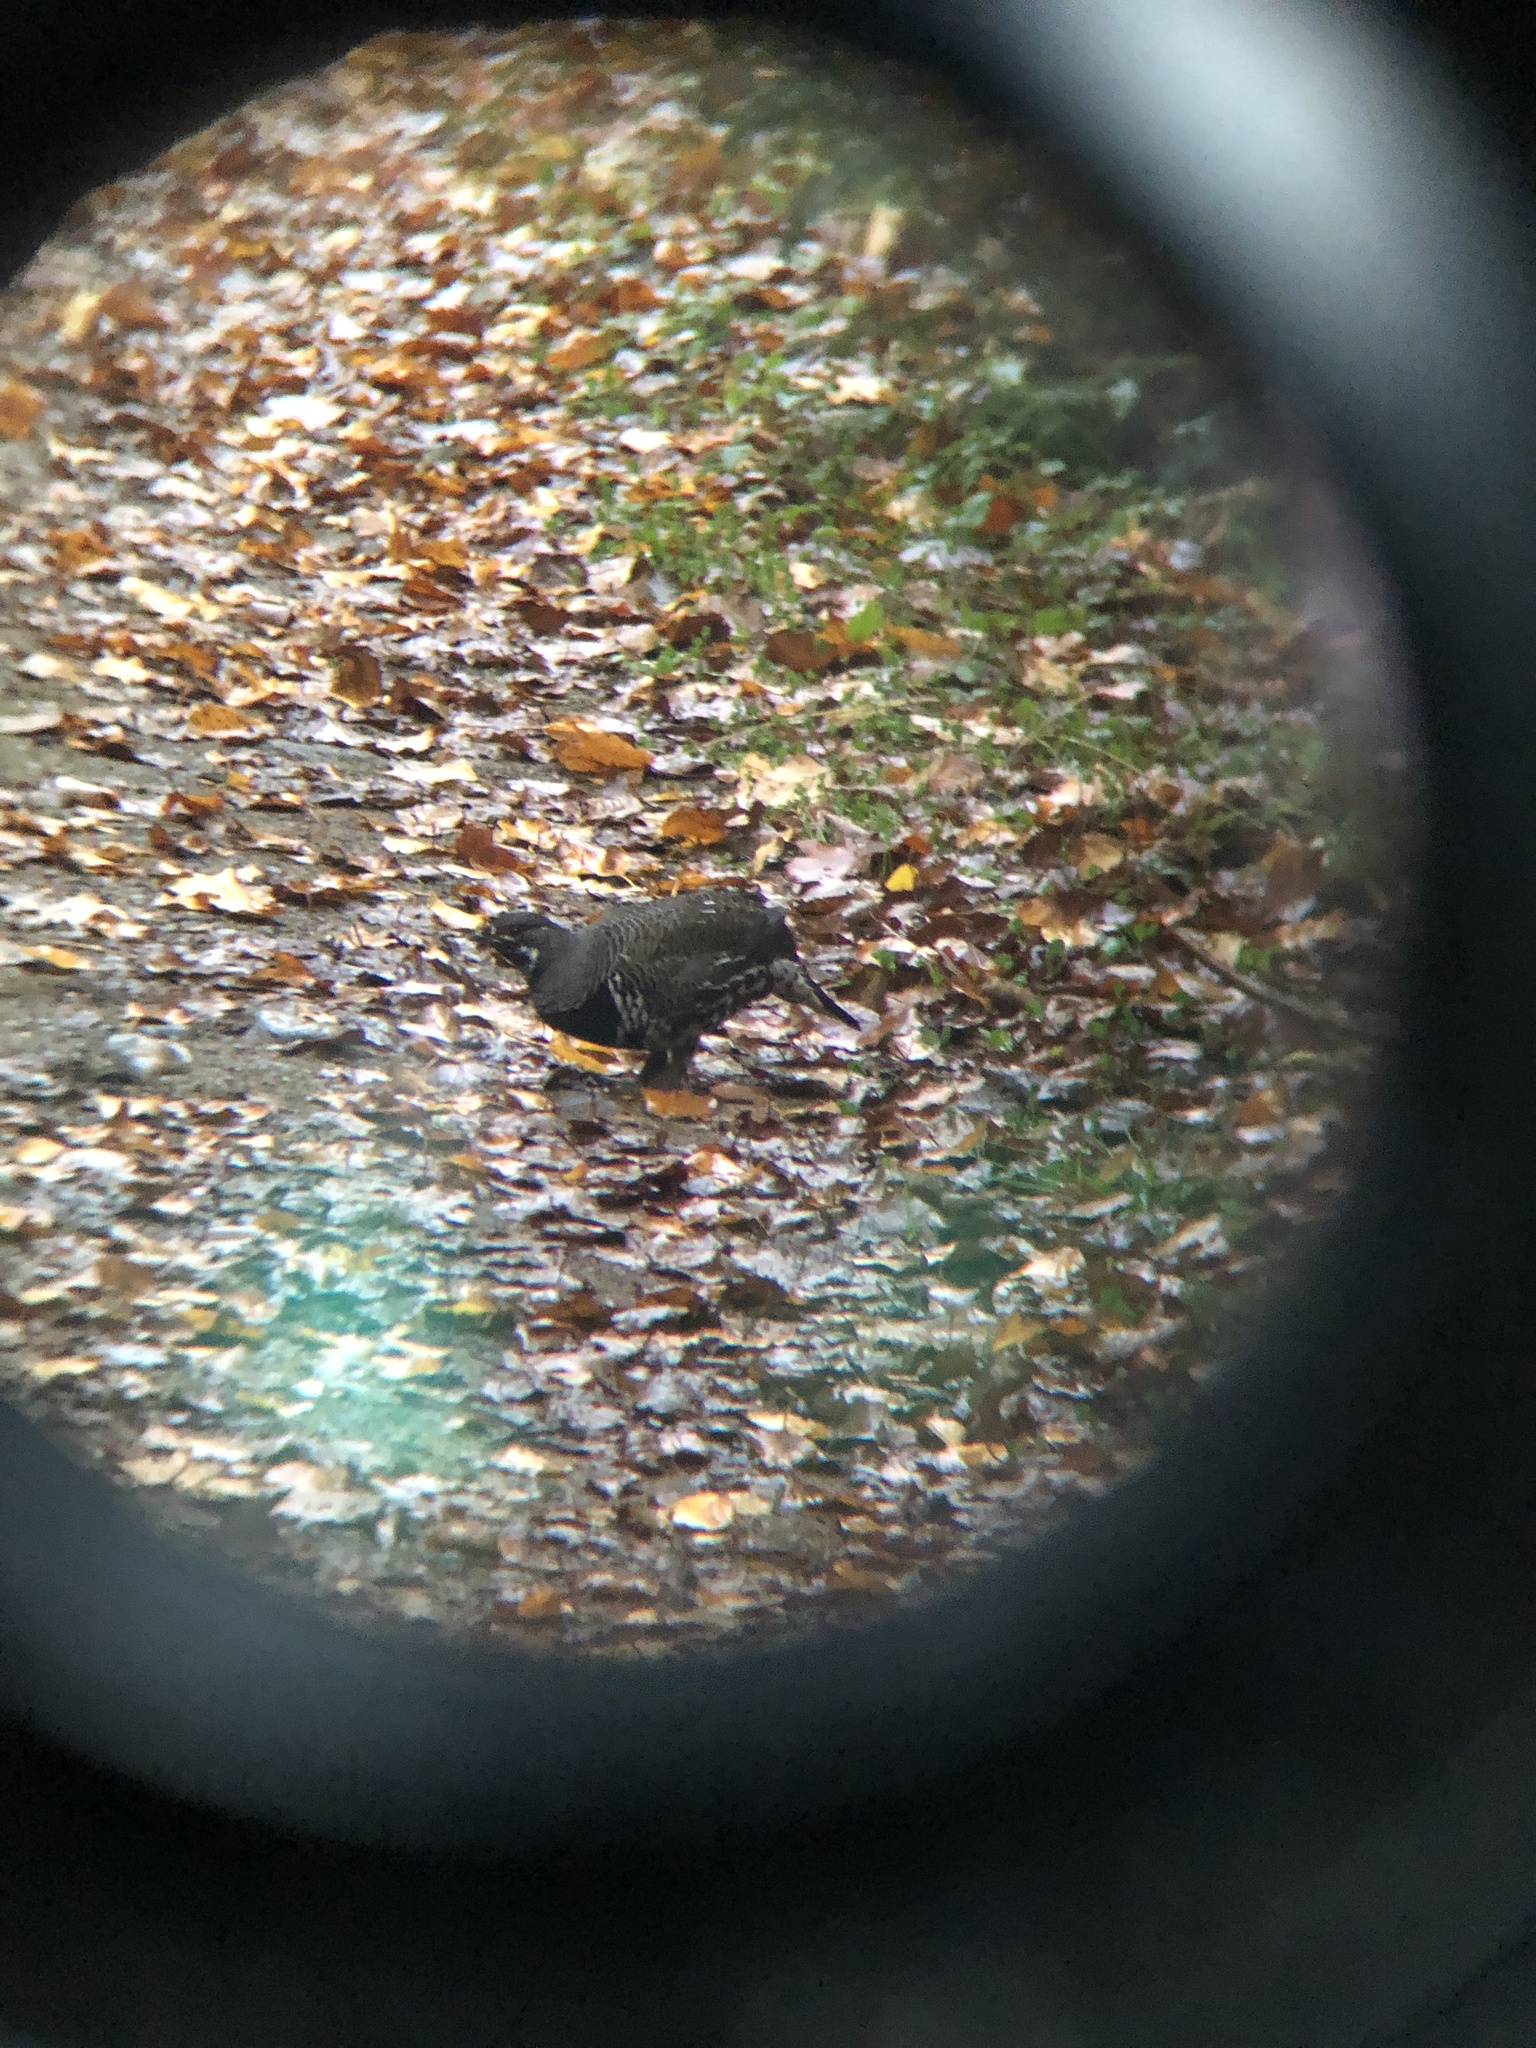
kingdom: Animalia
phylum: Chordata
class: Aves
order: Galliformes
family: Phasianidae
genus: Canachites
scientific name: Canachites canadensis
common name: Spruce grouse
